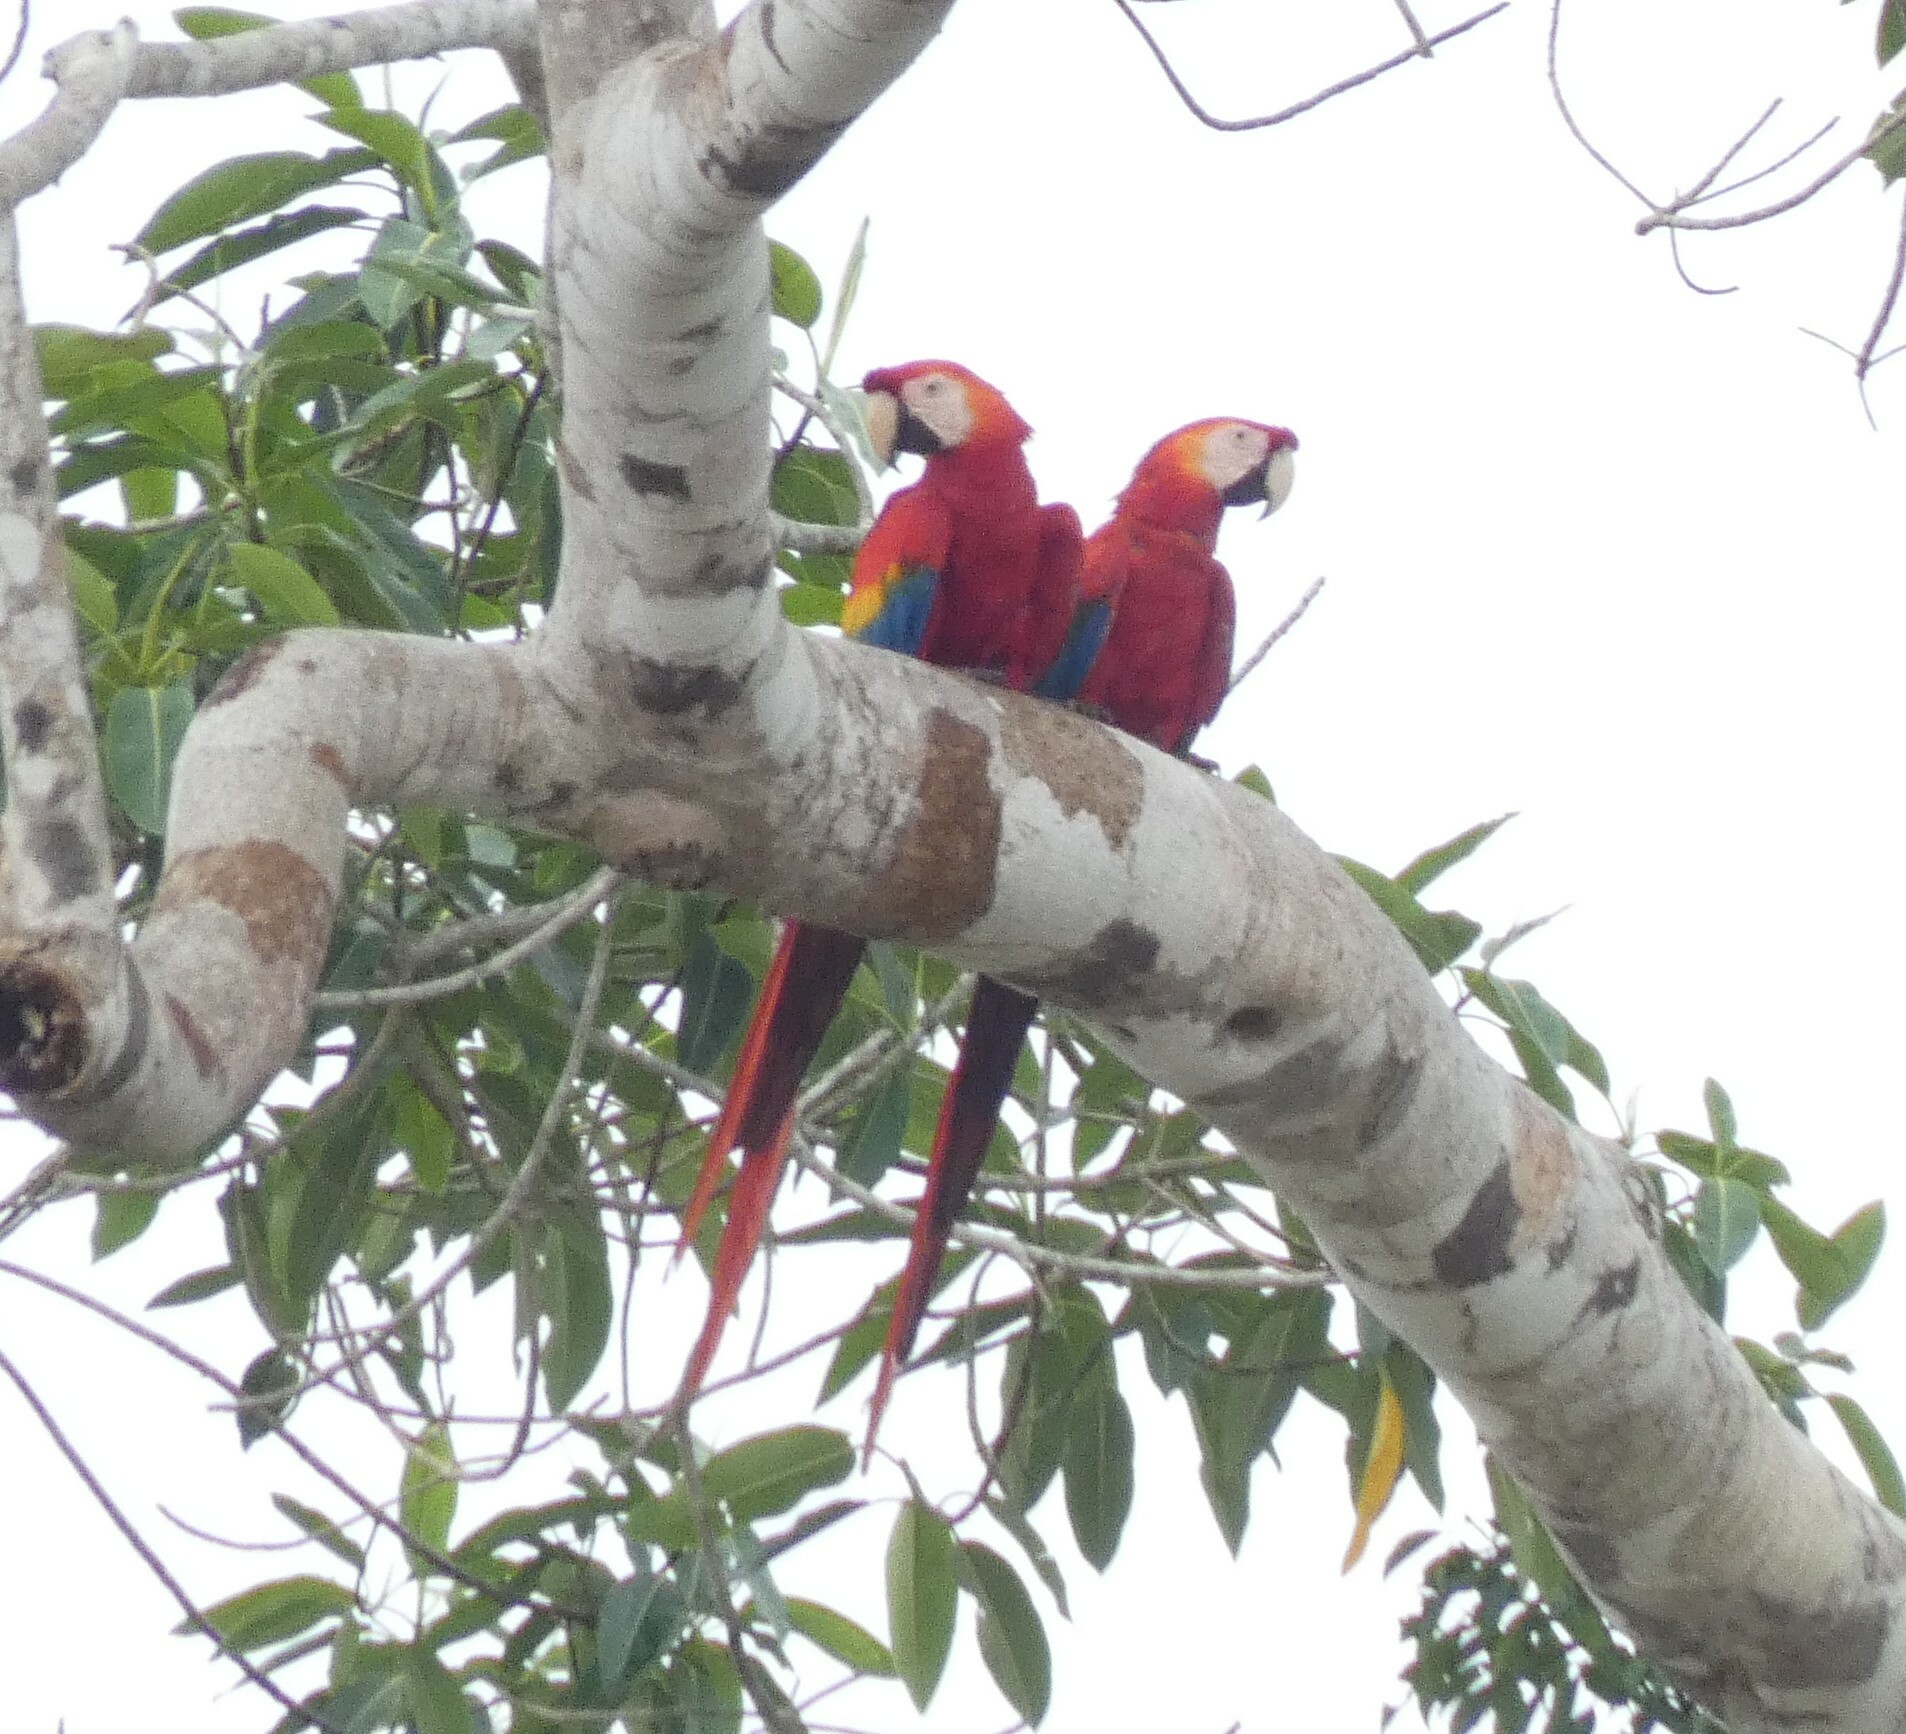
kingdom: Animalia
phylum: Chordata
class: Aves
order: Psittaciformes
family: Psittacidae
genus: Ara
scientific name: Ara macao
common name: Scarlet macaw
